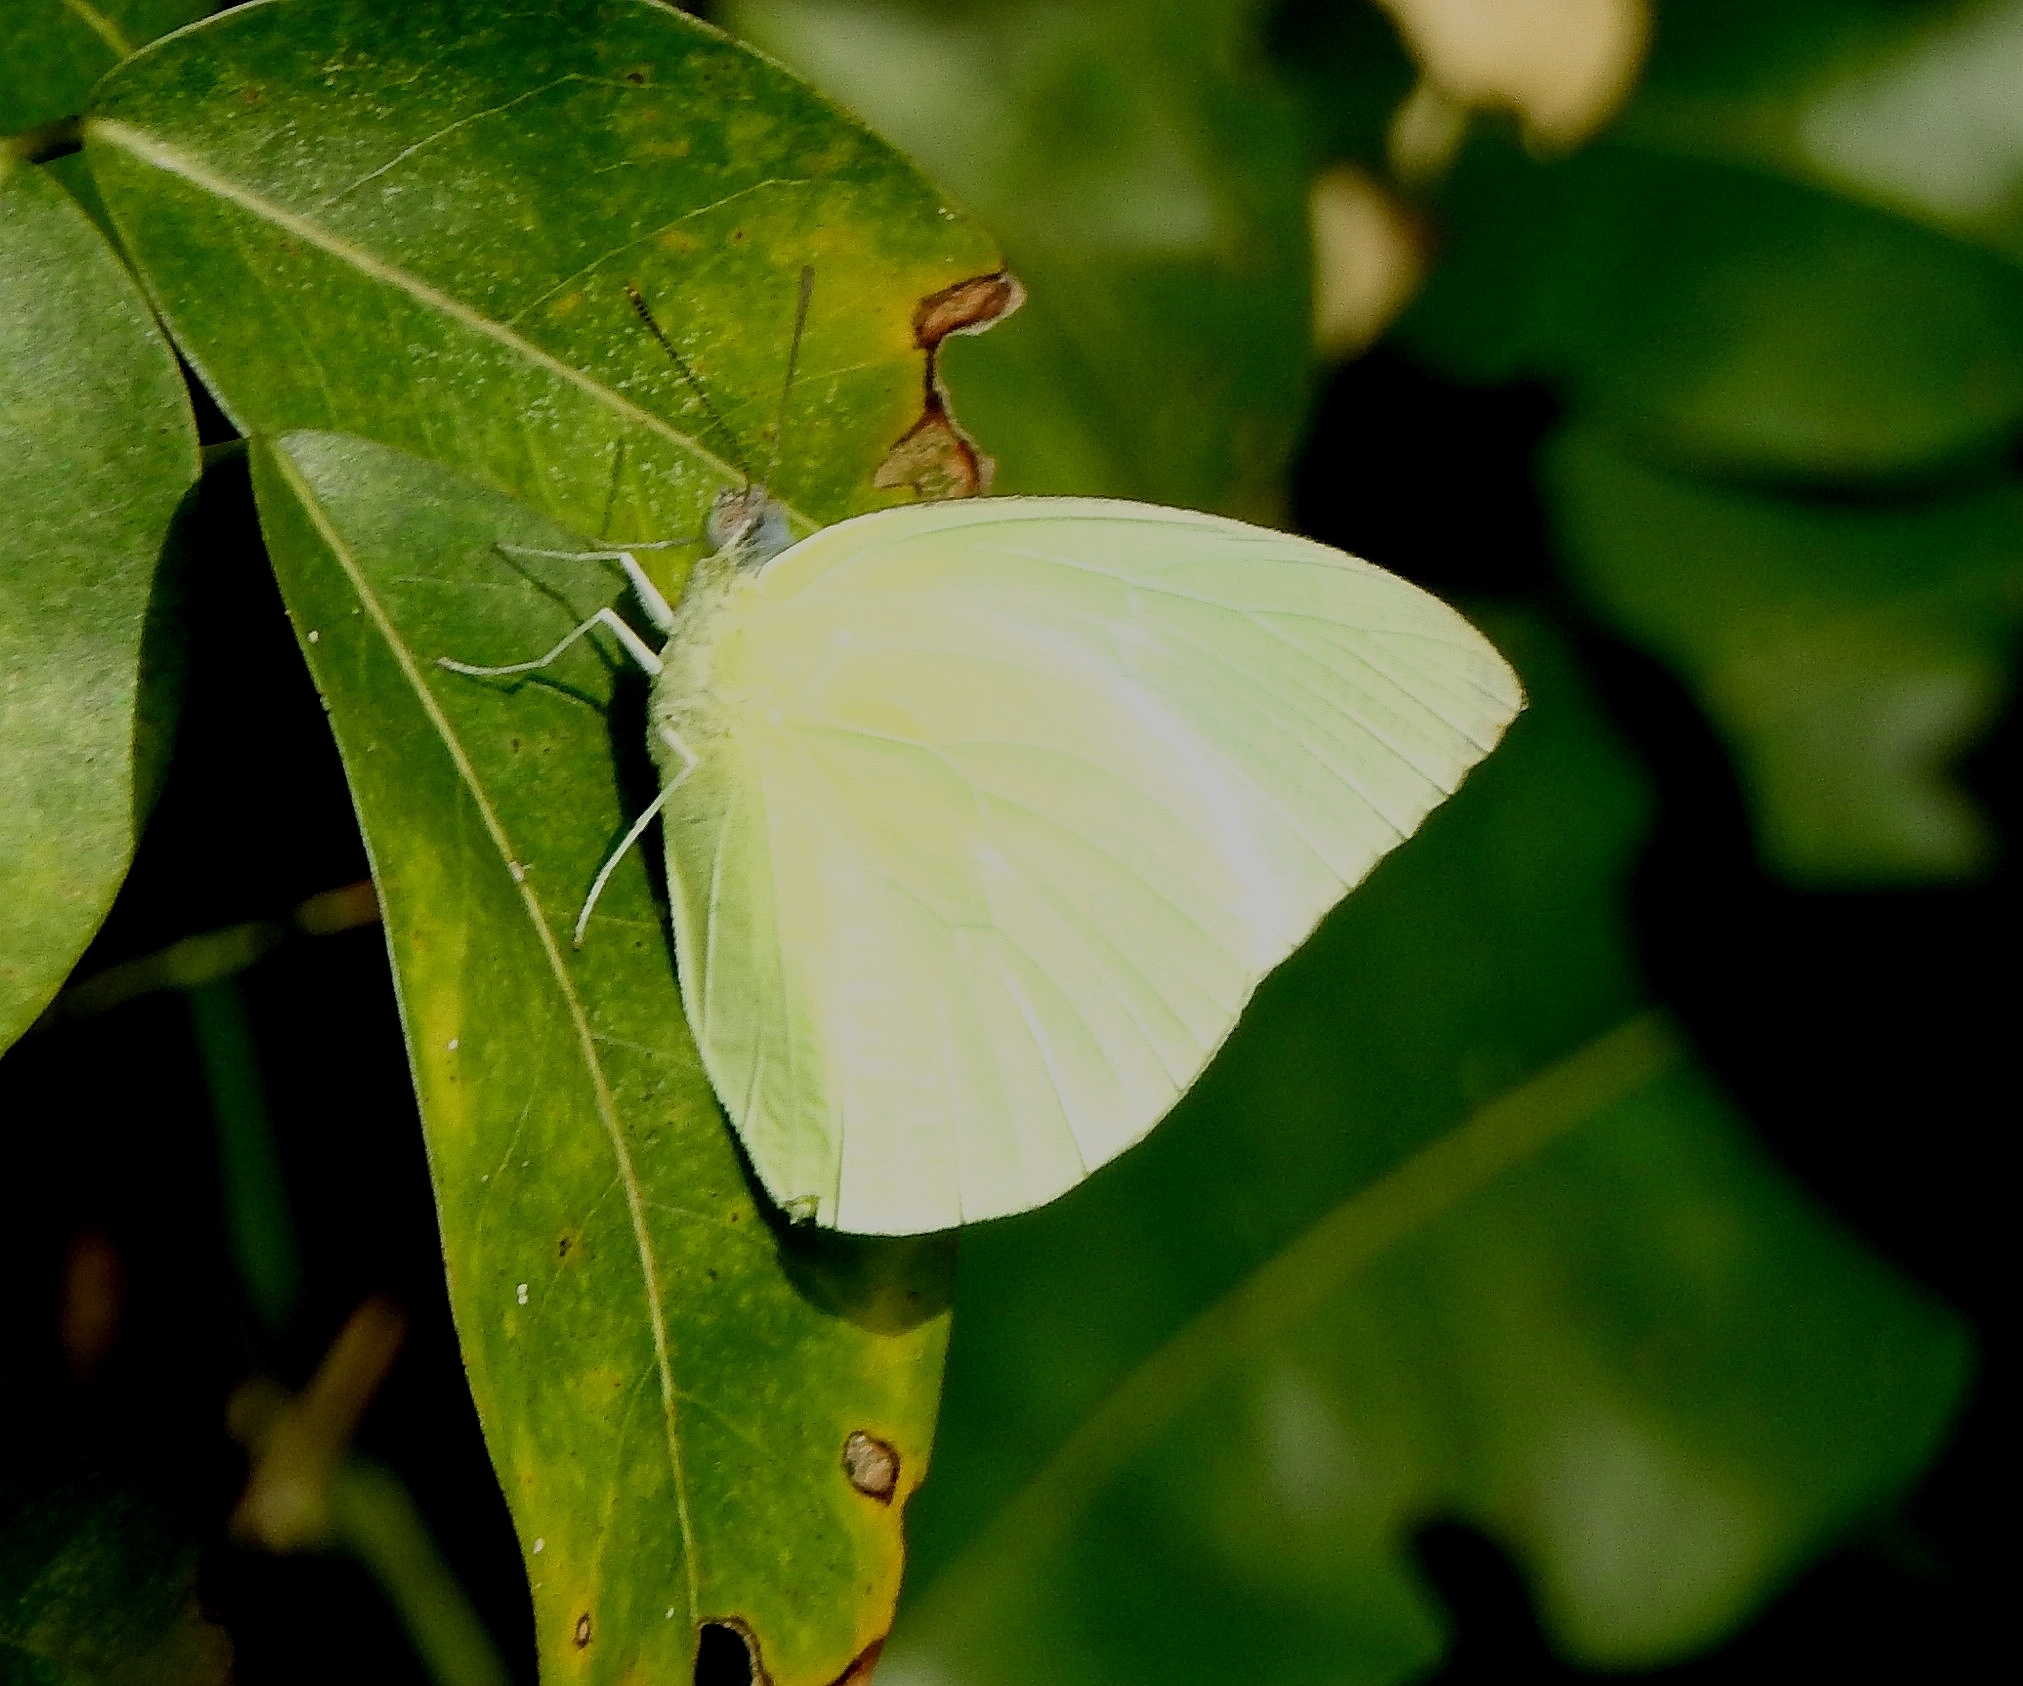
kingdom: Animalia
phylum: Arthropoda
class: Insecta
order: Lepidoptera
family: Pieridae
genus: Catopsilia
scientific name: Catopsilia pomona
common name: Common emigrant
